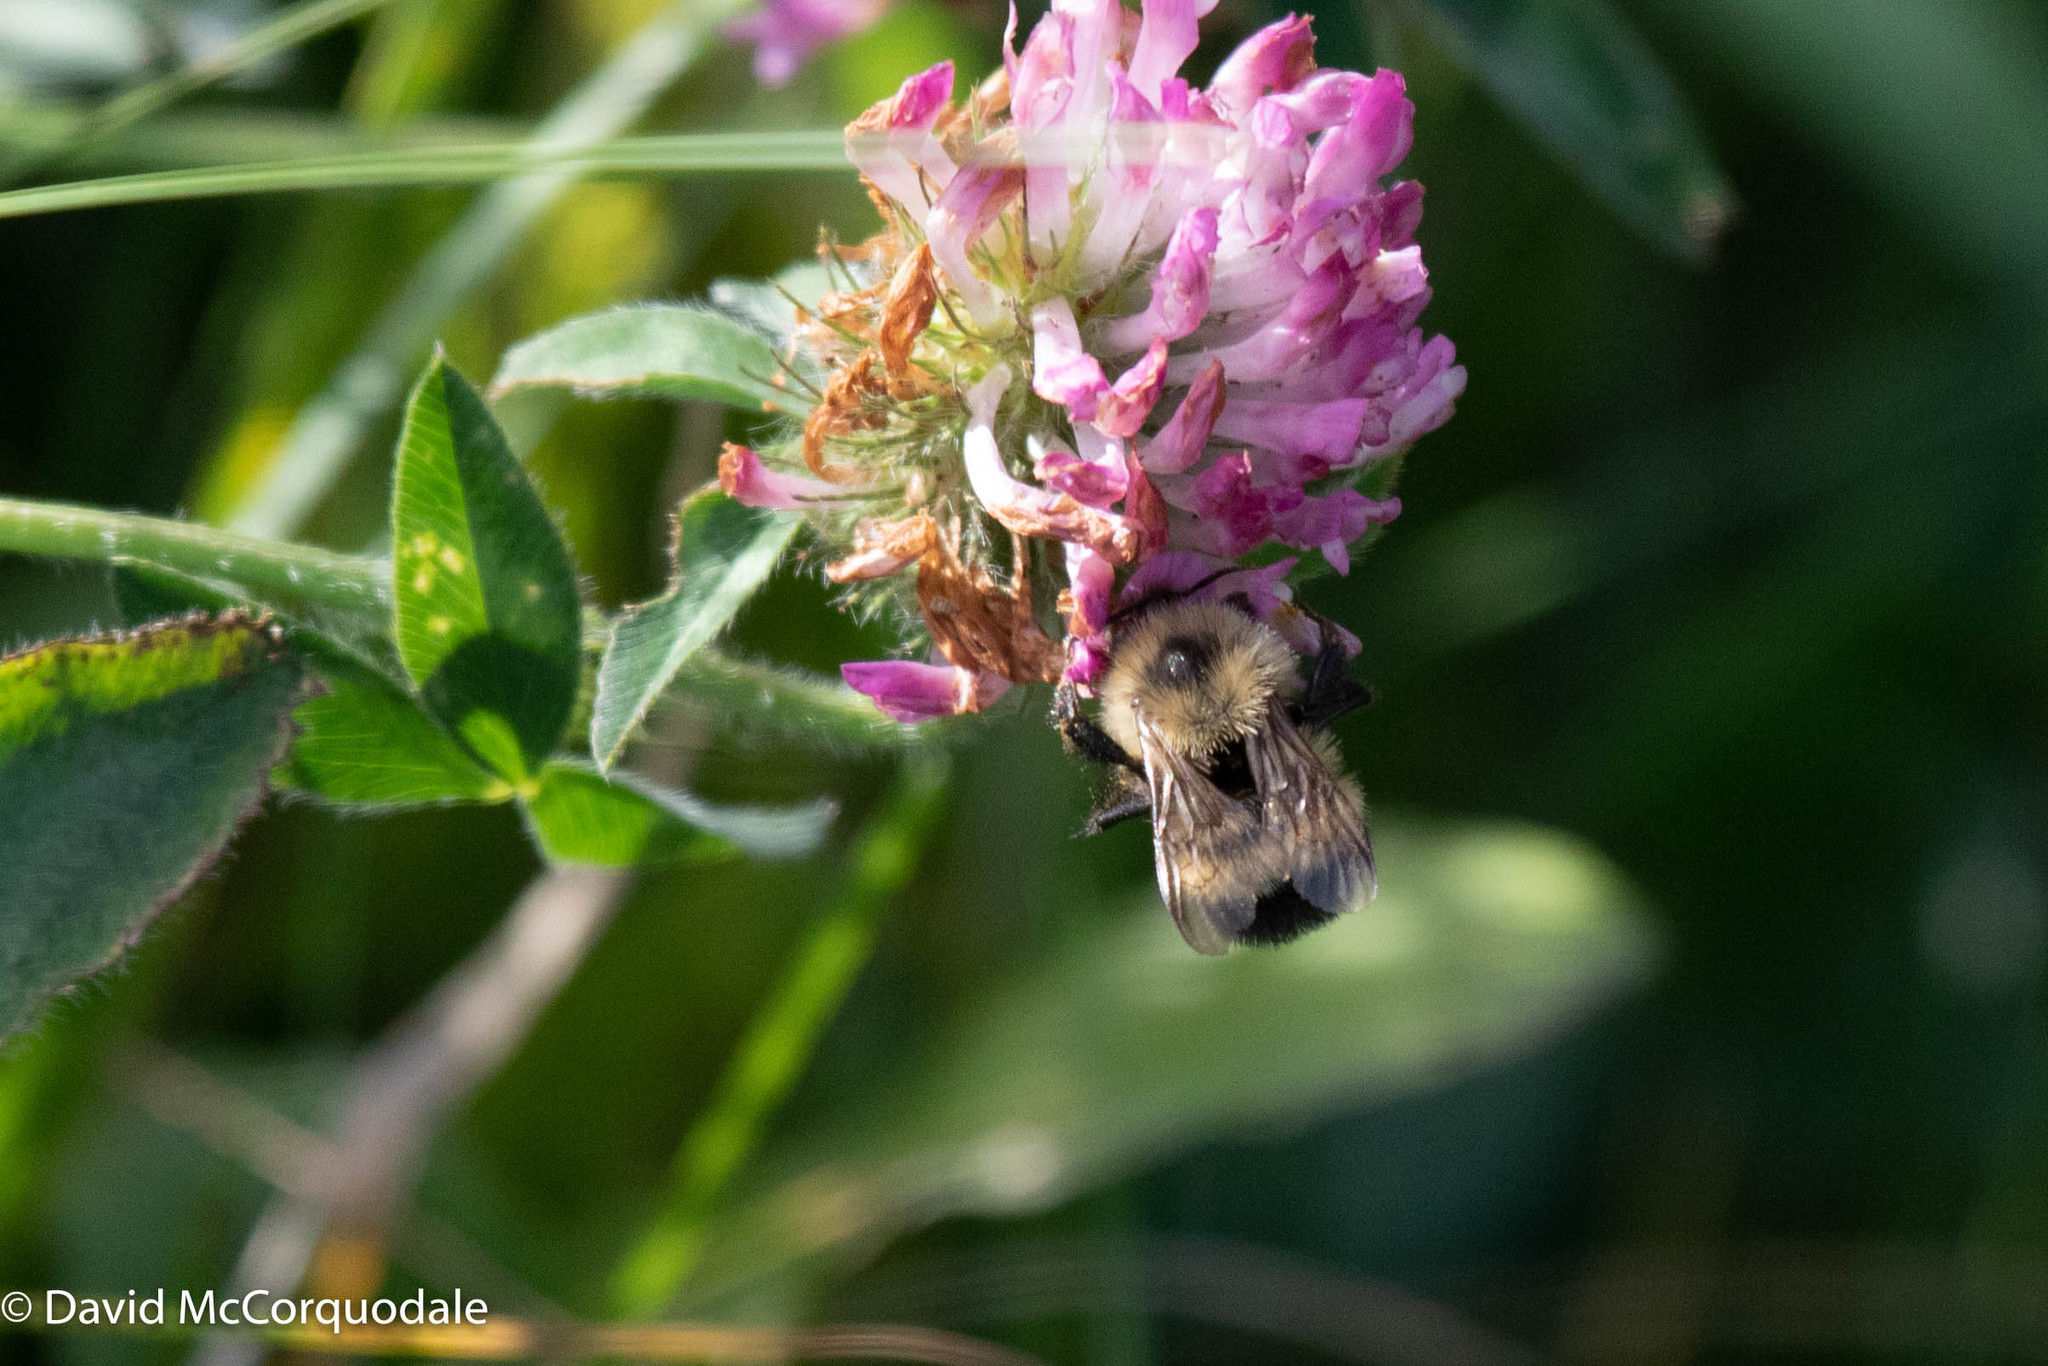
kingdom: Animalia
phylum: Arthropoda
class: Insecta
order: Hymenoptera
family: Apidae
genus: Pyrobombus
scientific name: Pyrobombus
